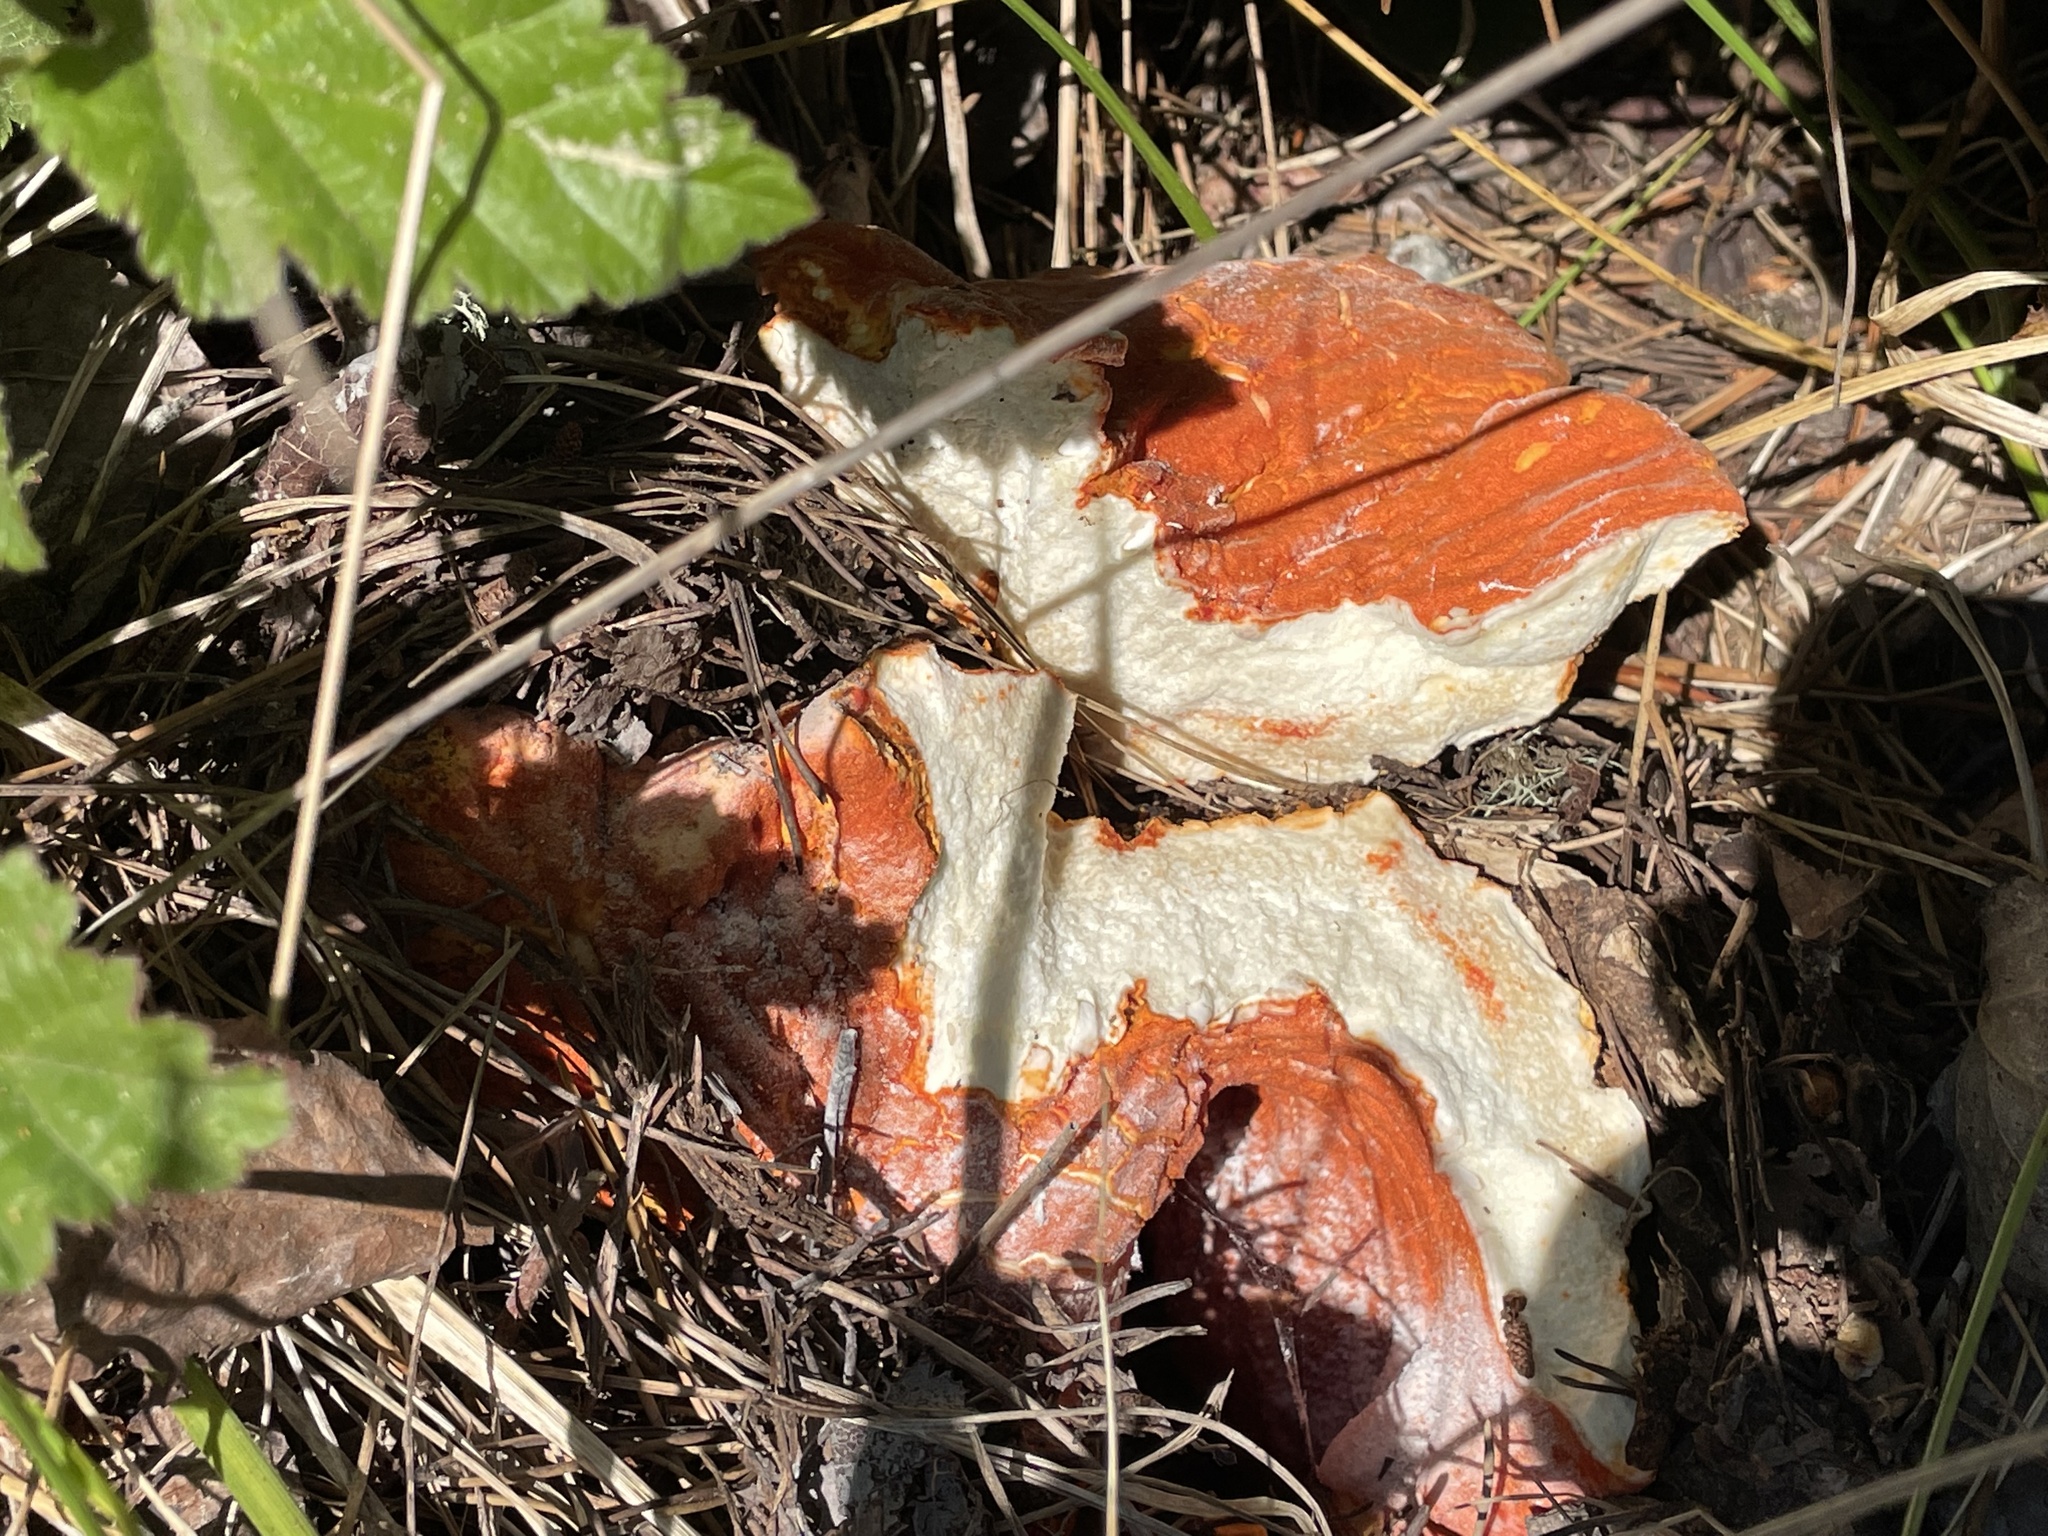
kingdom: Fungi
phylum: Ascomycota
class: Sordariomycetes
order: Hypocreales
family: Hypocreaceae
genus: Hypomyces
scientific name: Hypomyces lactifluorum
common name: Lobster mushroom
